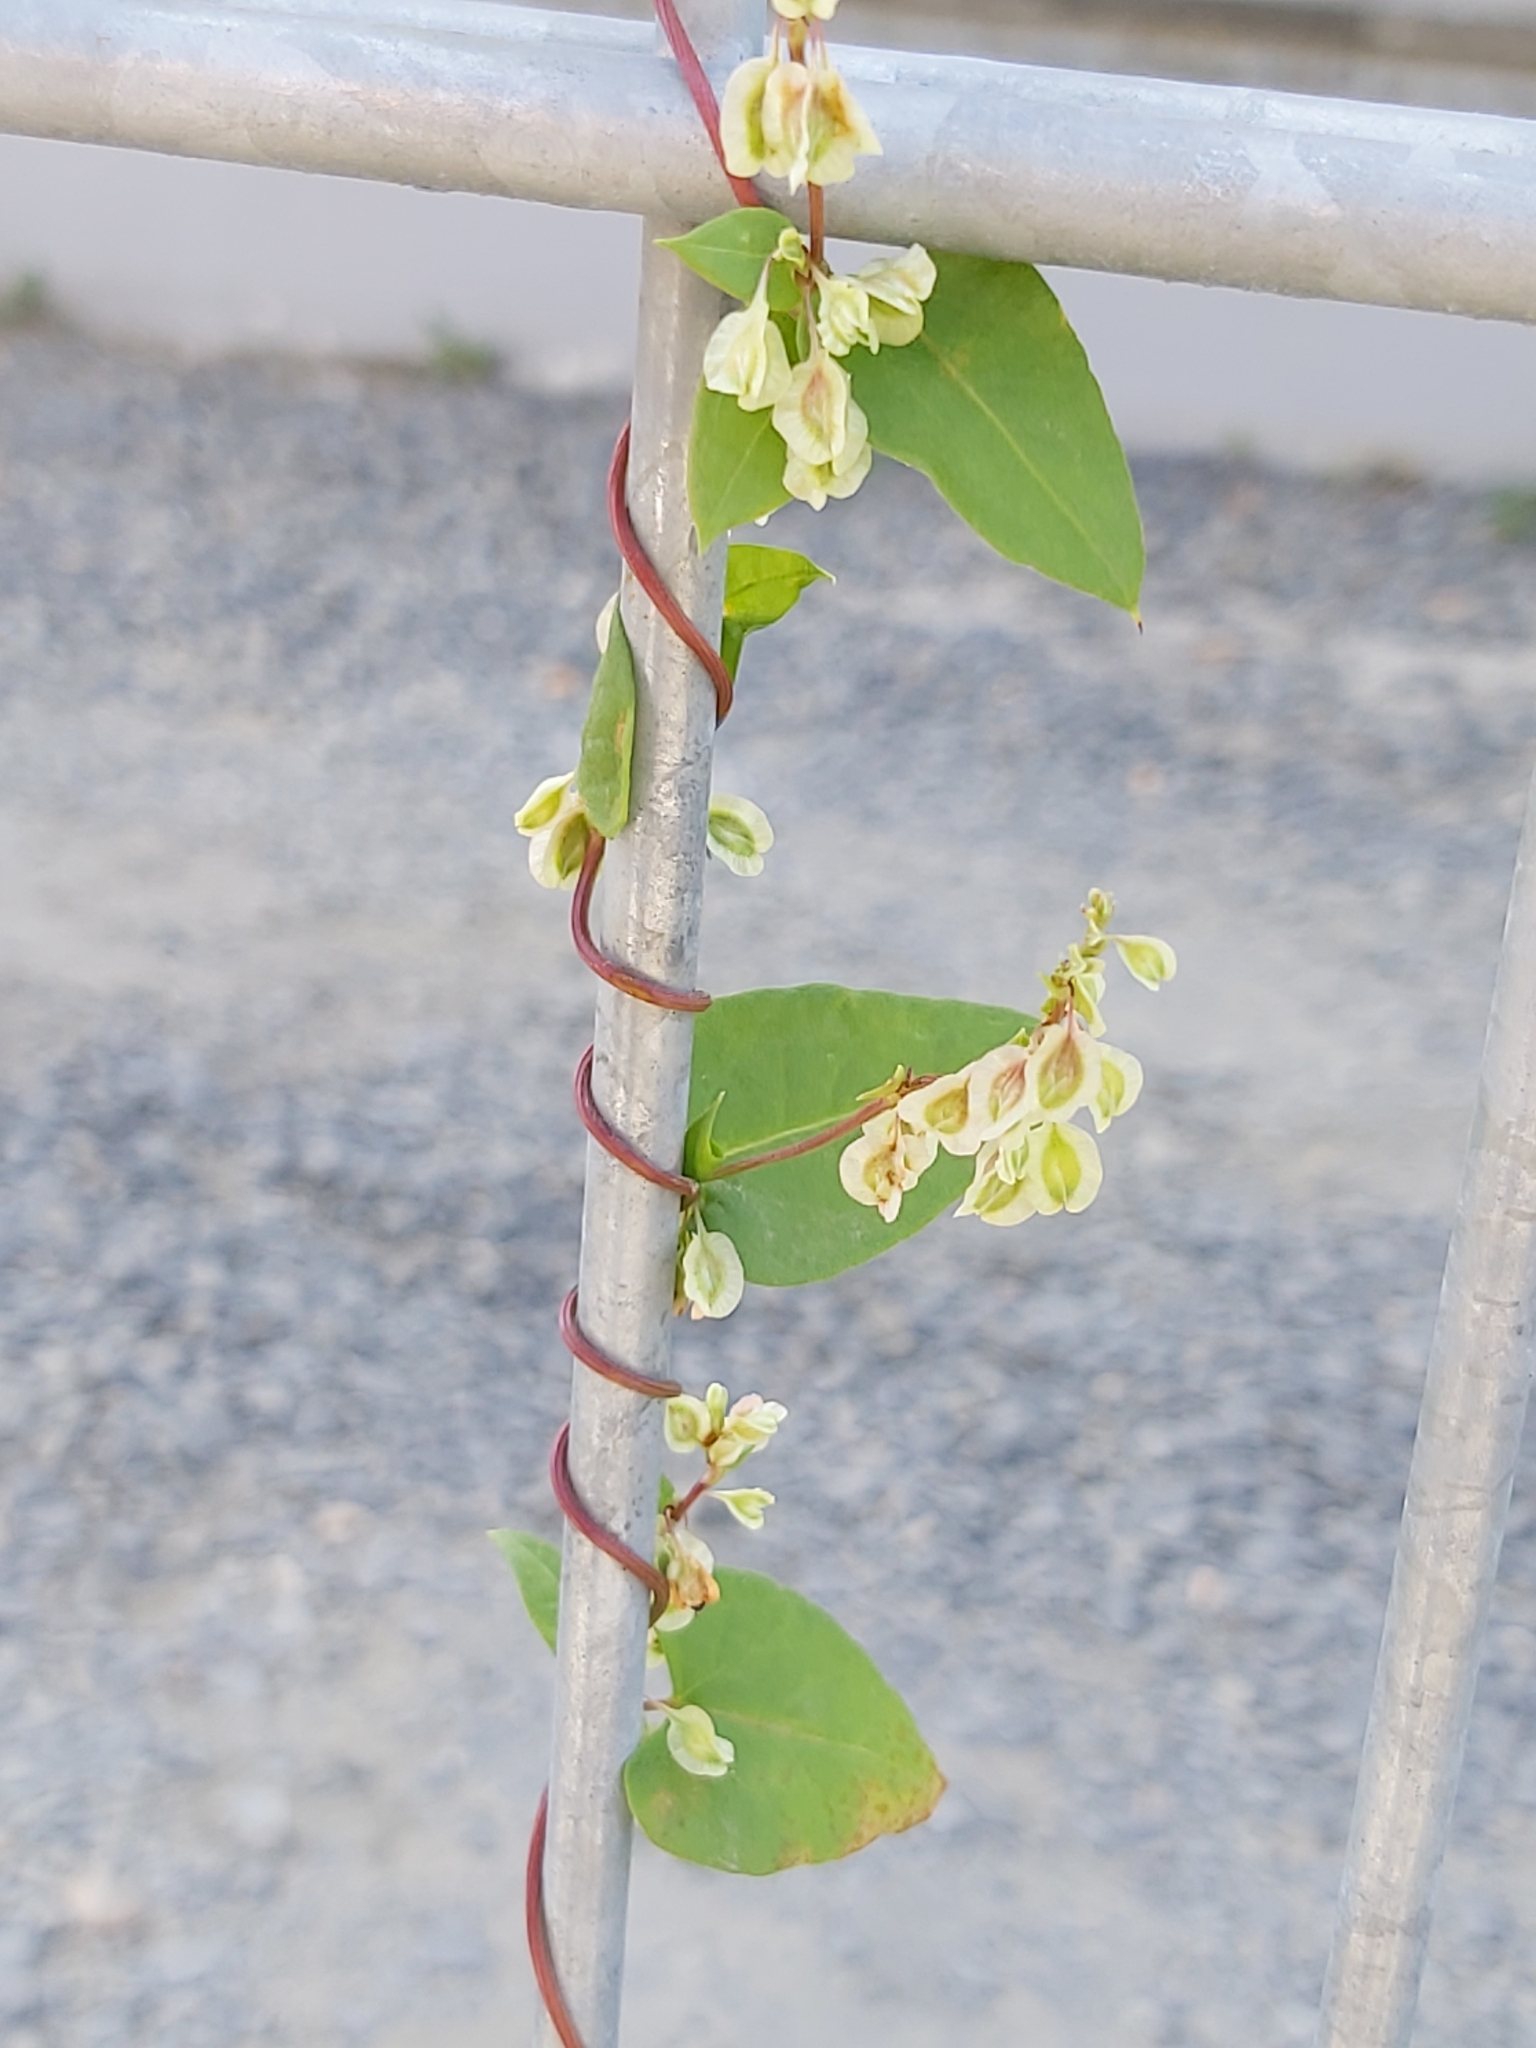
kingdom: Plantae
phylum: Tracheophyta
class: Magnoliopsida
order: Caryophyllales
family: Polygonaceae
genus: Fallopia
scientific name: Fallopia dumetorum
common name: Copse-bindweed
